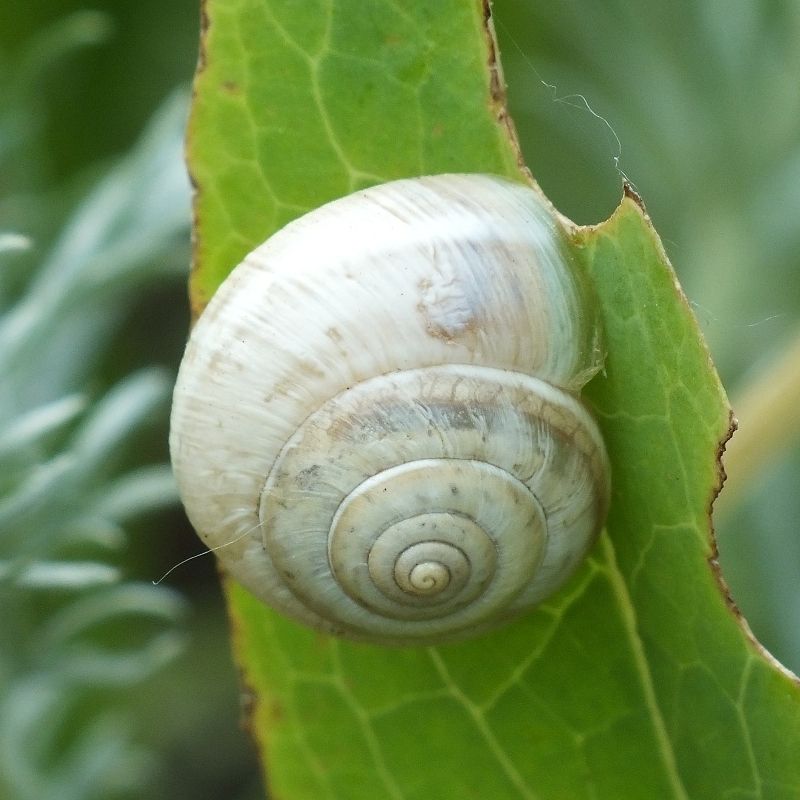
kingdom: Animalia
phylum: Mollusca
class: Gastropoda
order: Stylommatophora
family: Hygromiidae
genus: Harmozica
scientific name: Harmozica ravergiensis
